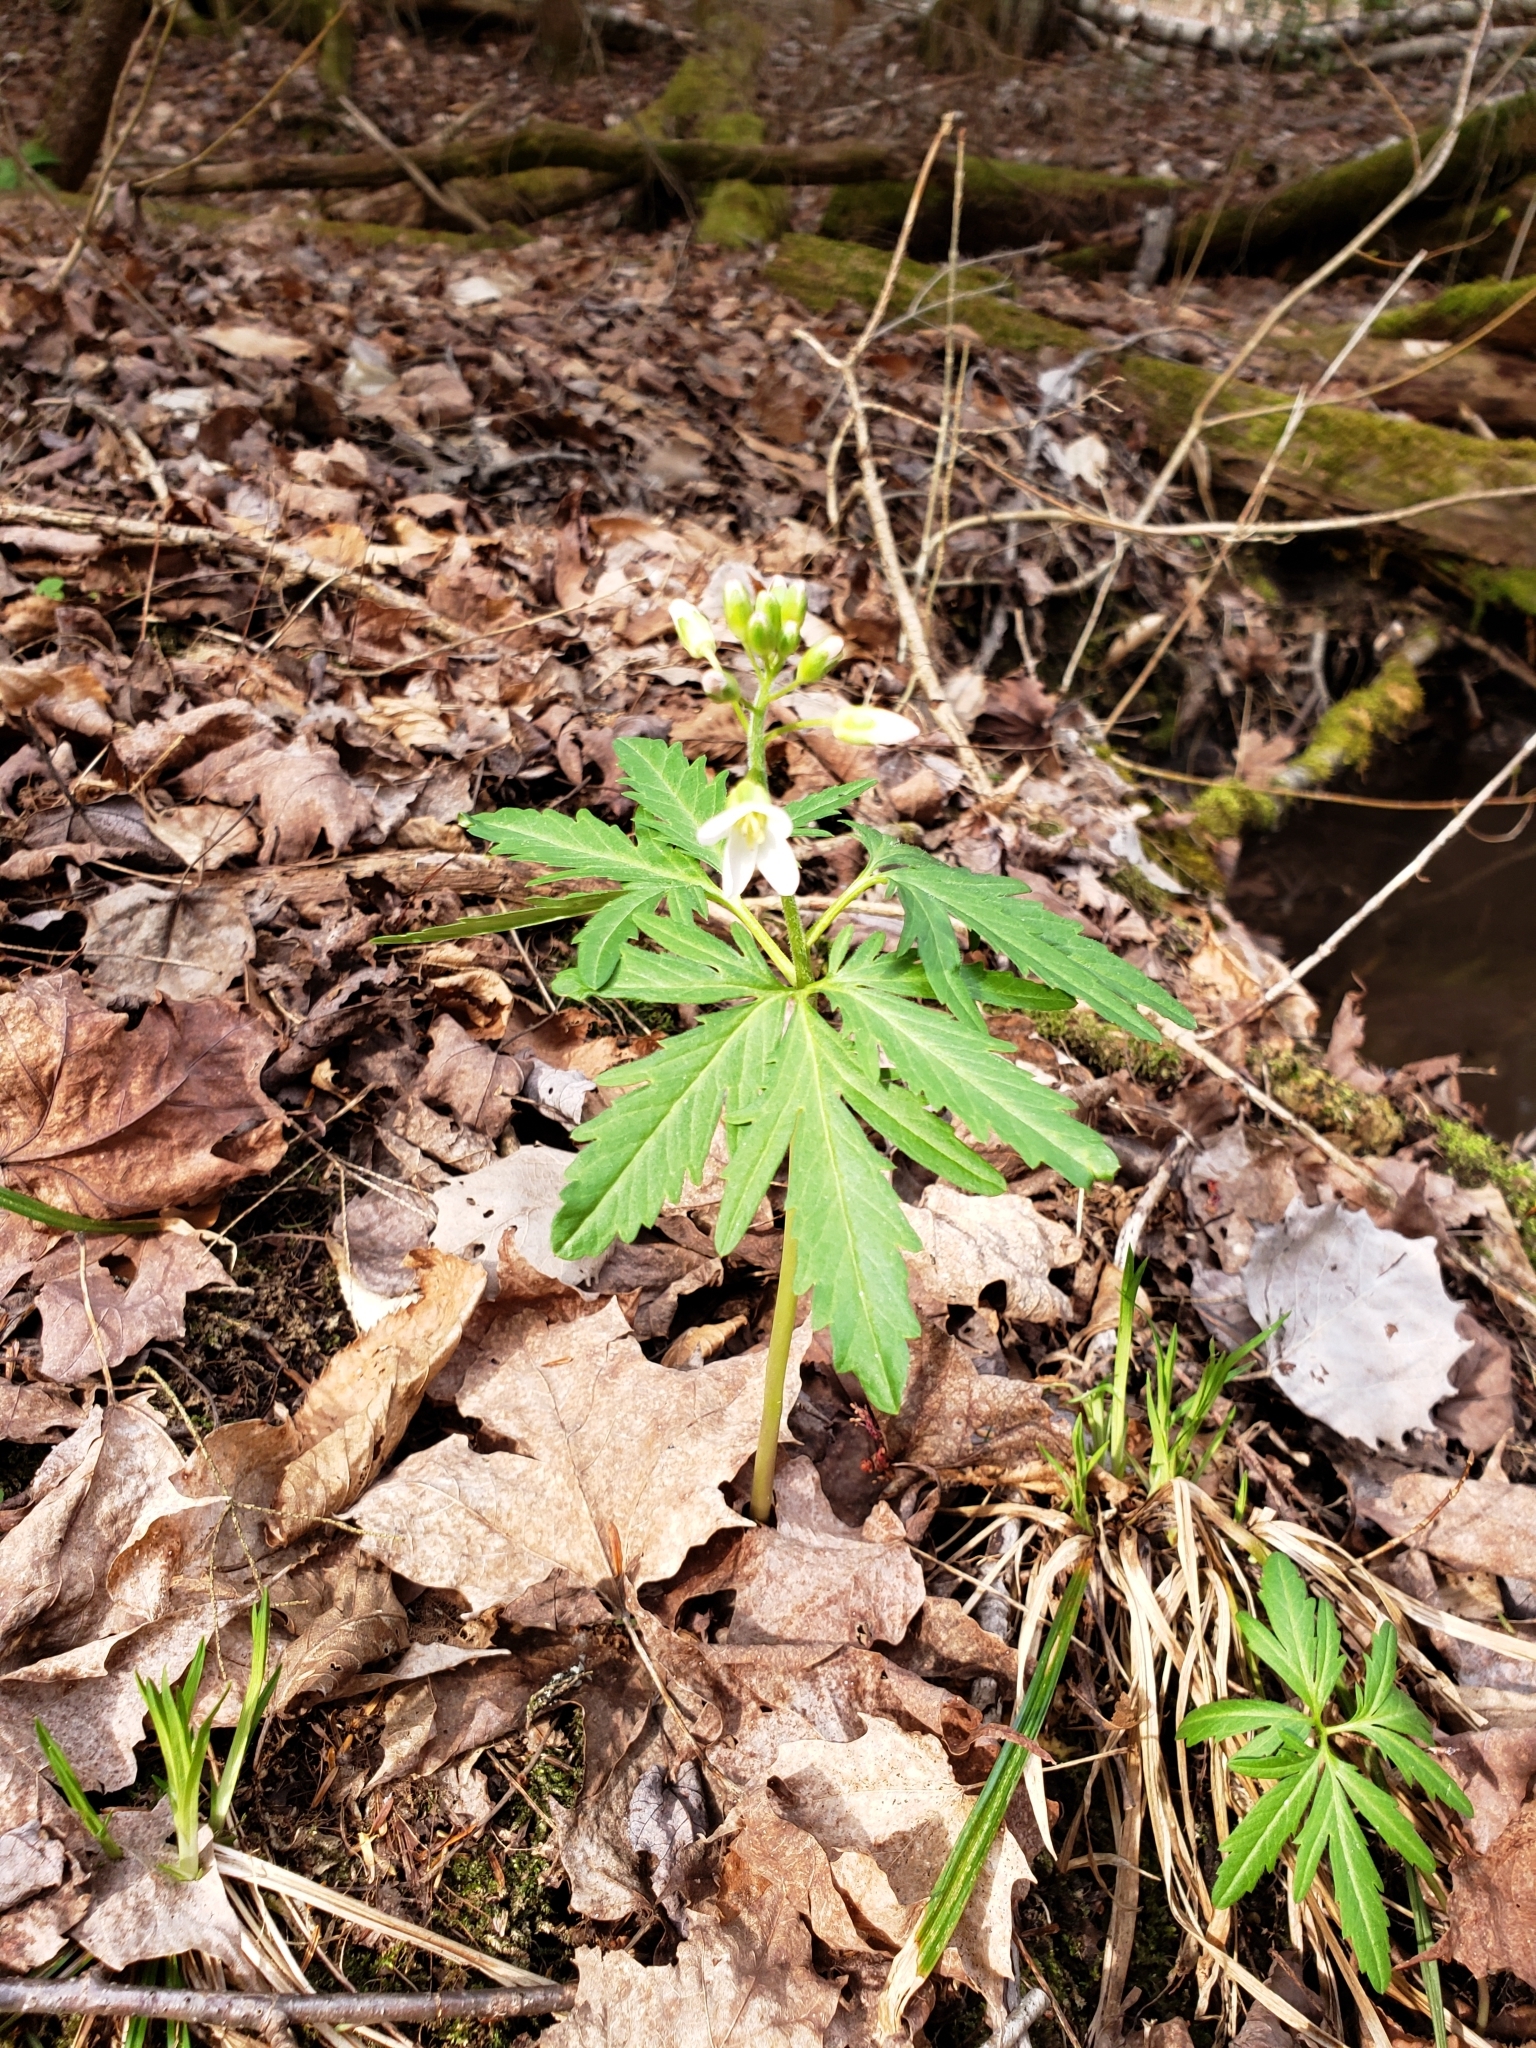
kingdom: Plantae
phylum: Tracheophyta
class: Magnoliopsida
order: Brassicales
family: Brassicaceae
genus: Cardamine
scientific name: Cardamine concatenata
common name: Cut-leaf toothcup
